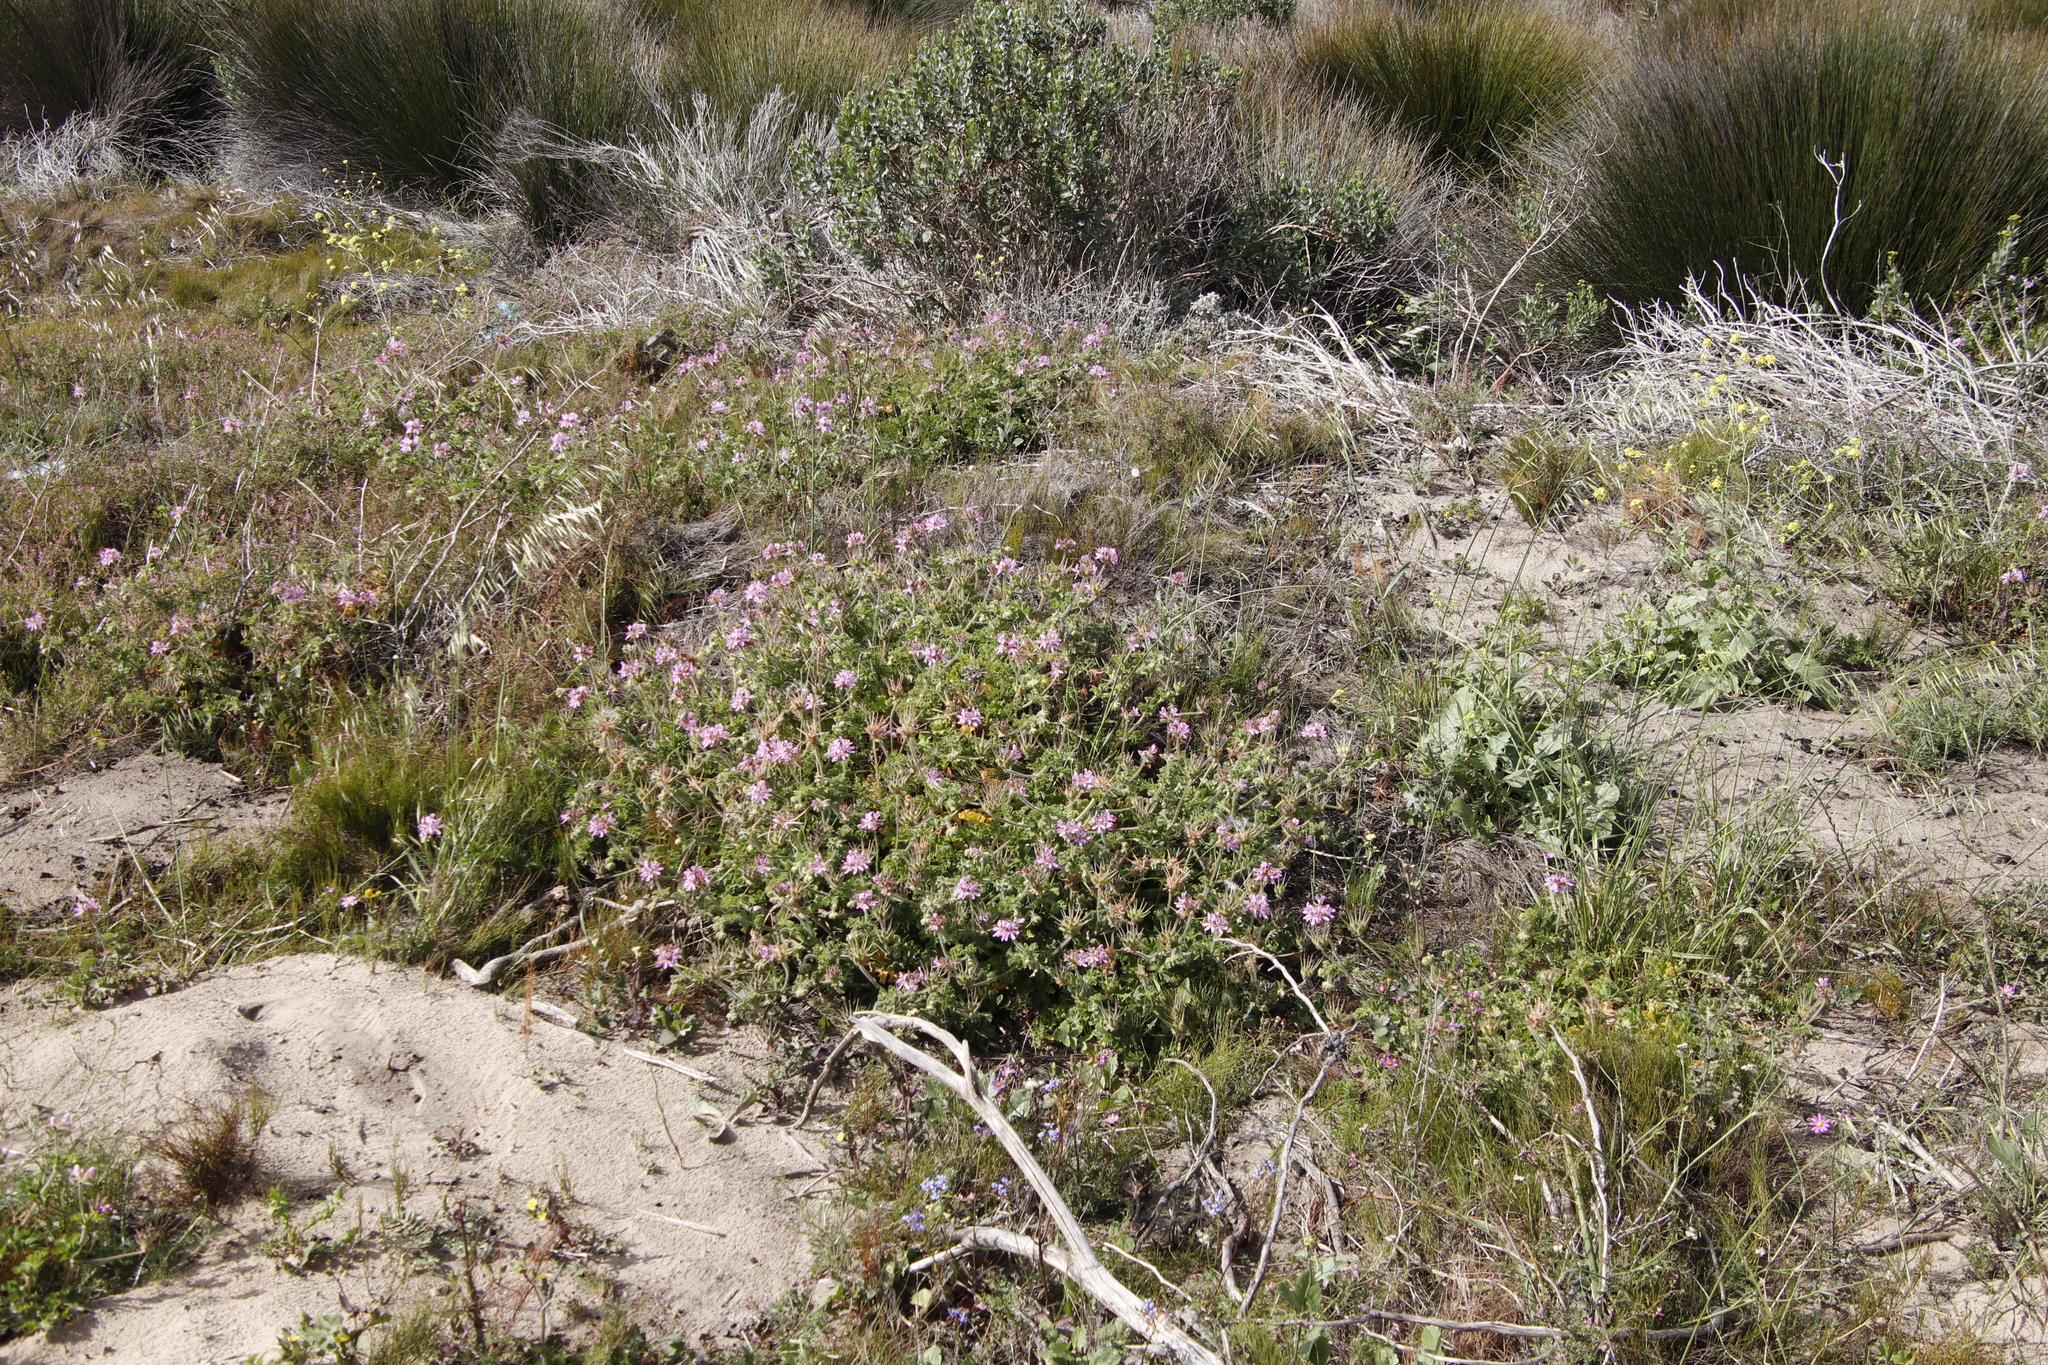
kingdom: Plantae
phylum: Tracheophyta
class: Magnoliopsida
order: Geraniales
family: Geraniaceae
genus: Pelargonium
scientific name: Pelargonium capitatum
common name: Rose scented geranium
